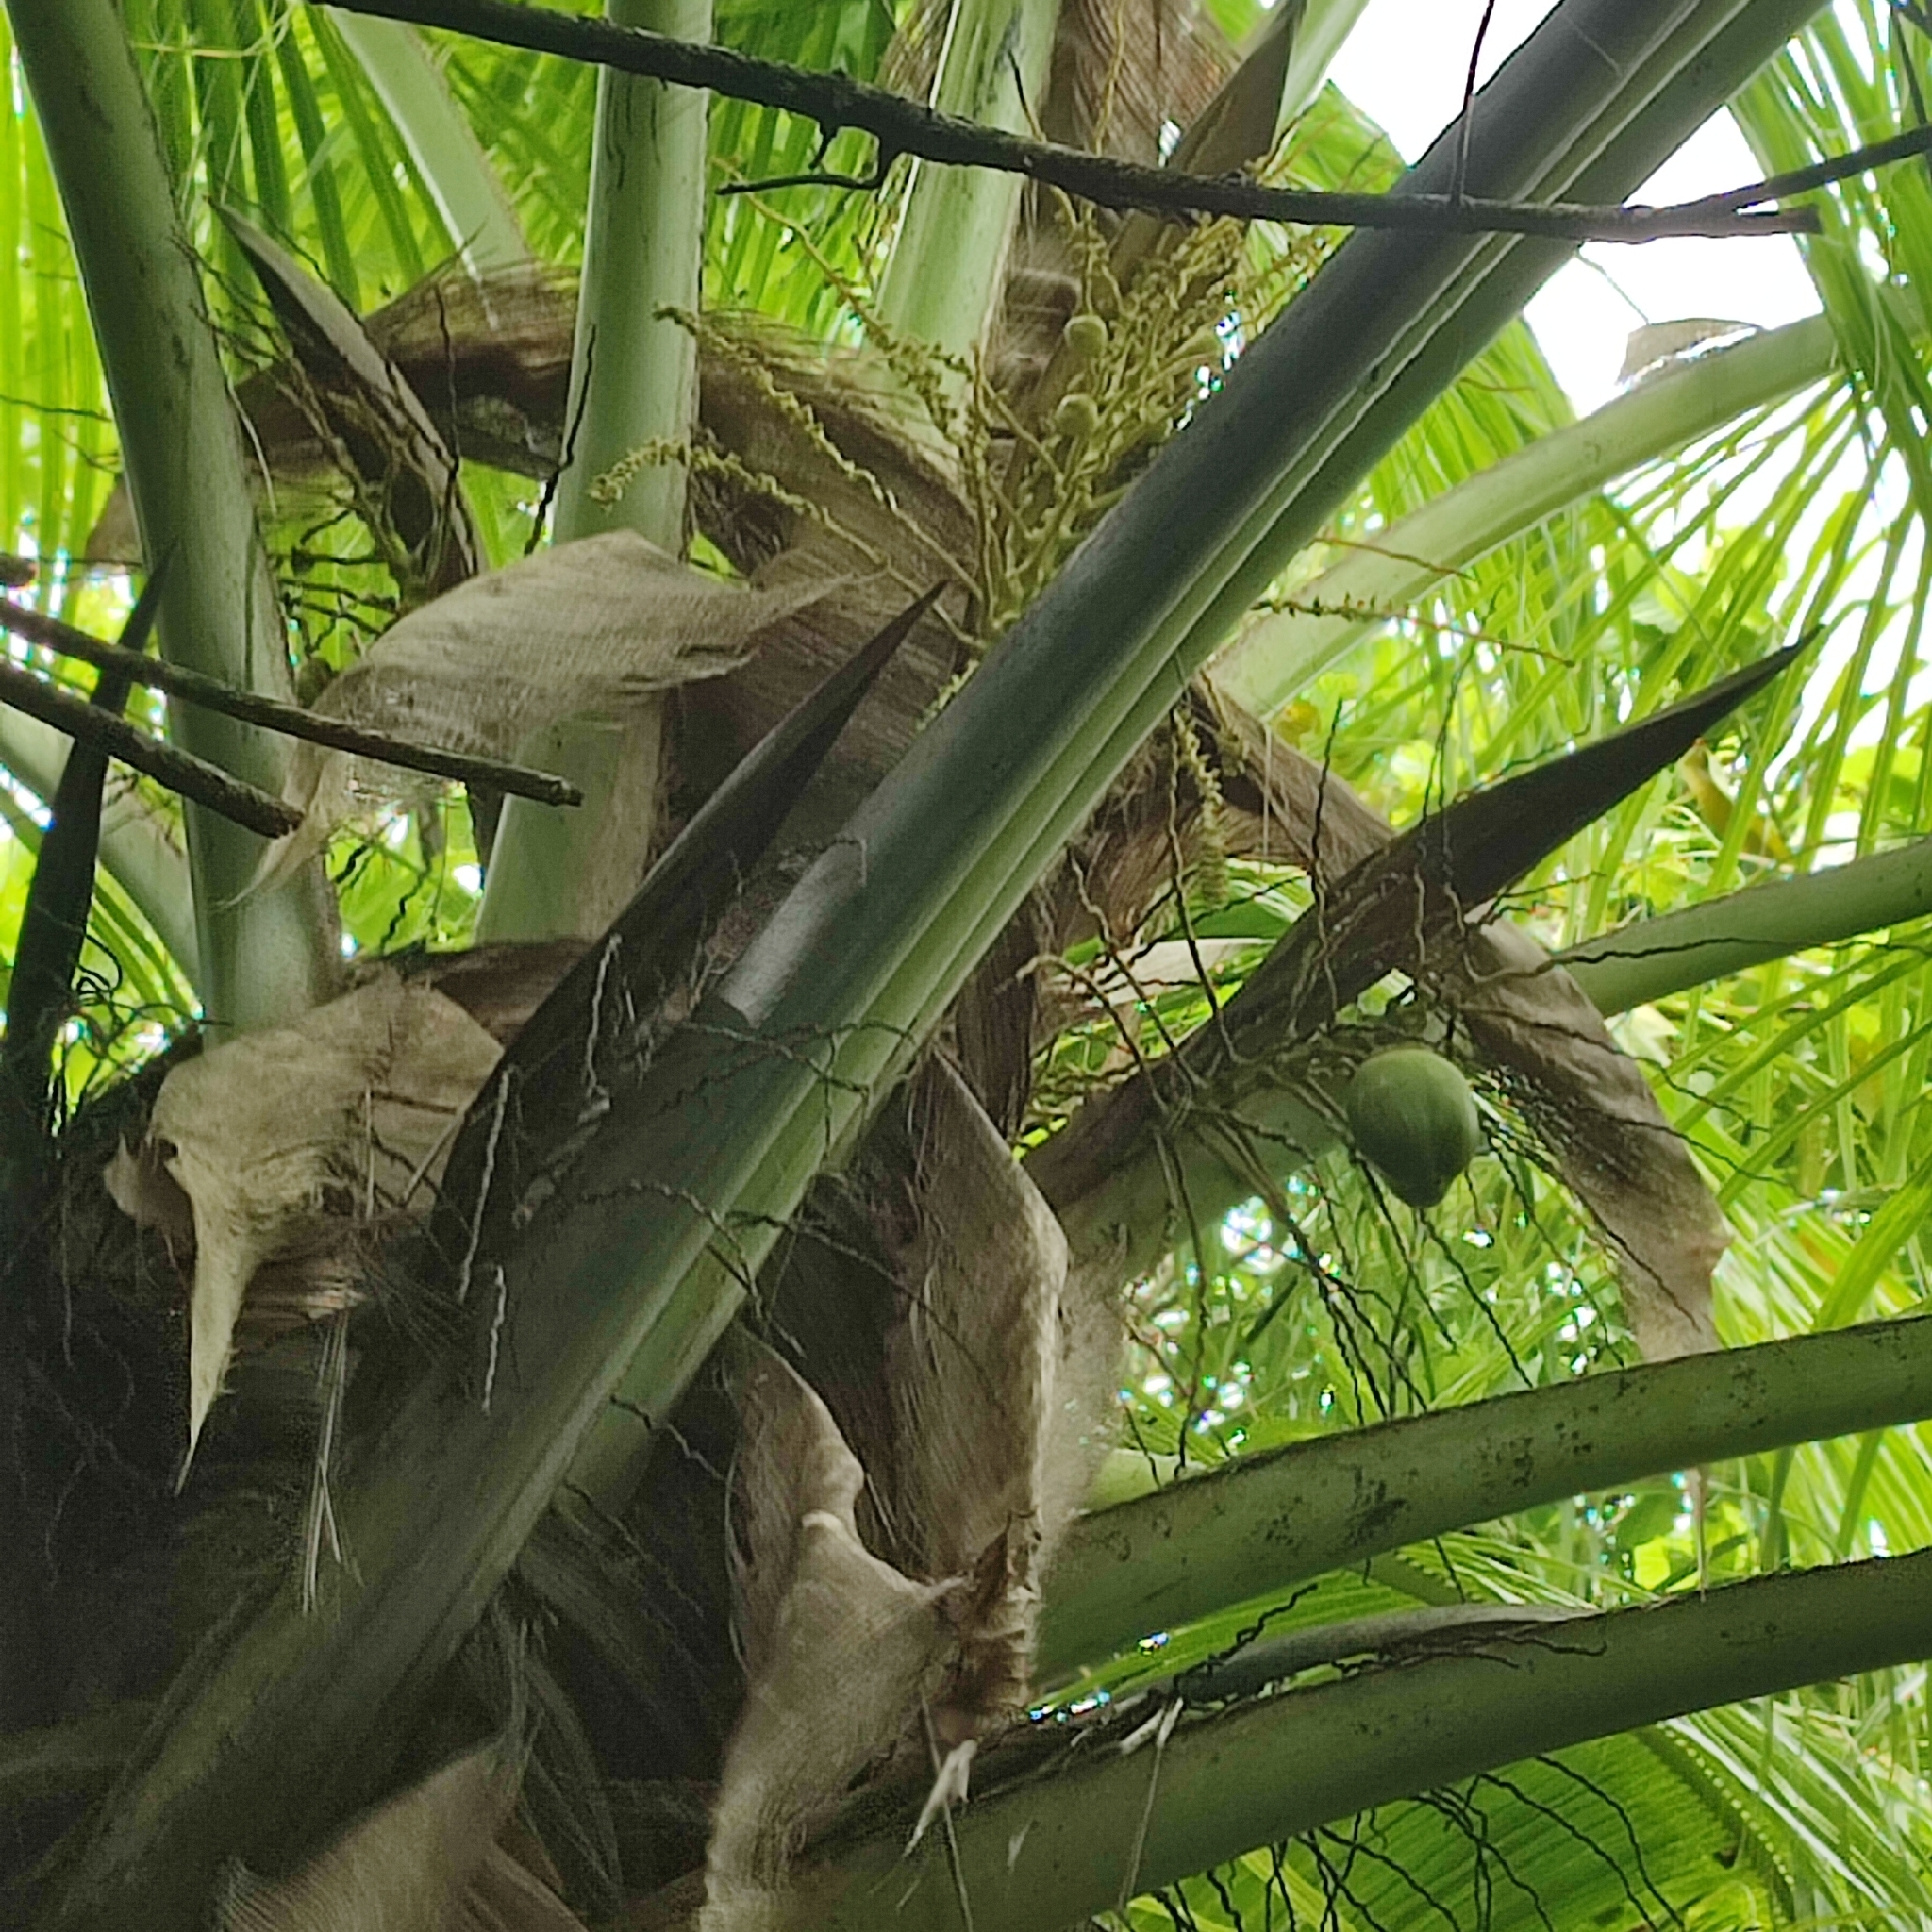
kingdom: Plantae
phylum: Tracheophyta
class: Liliopsida
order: Arecales
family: Arecaceae
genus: Cocos
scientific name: Cocos nucifera
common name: Coconut palm
